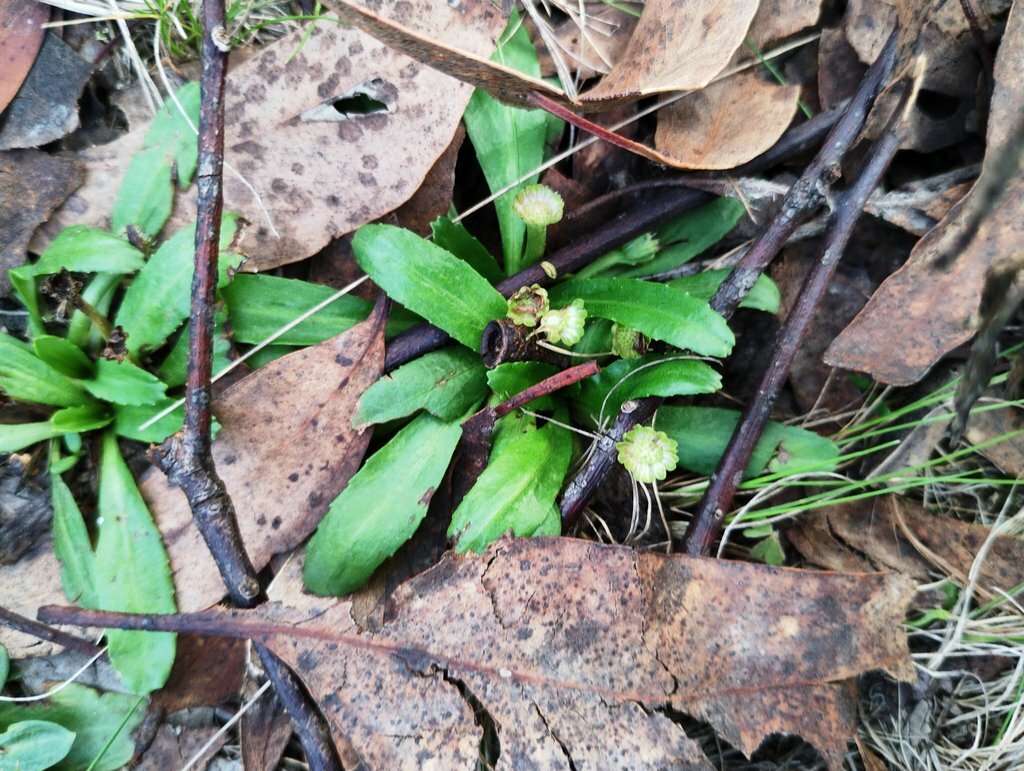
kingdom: Plantae
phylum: Tracheophyta
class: Magnoliopsida
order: Asterales
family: Asteraceae
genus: Solenogyne
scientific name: Solenogyne dominii
